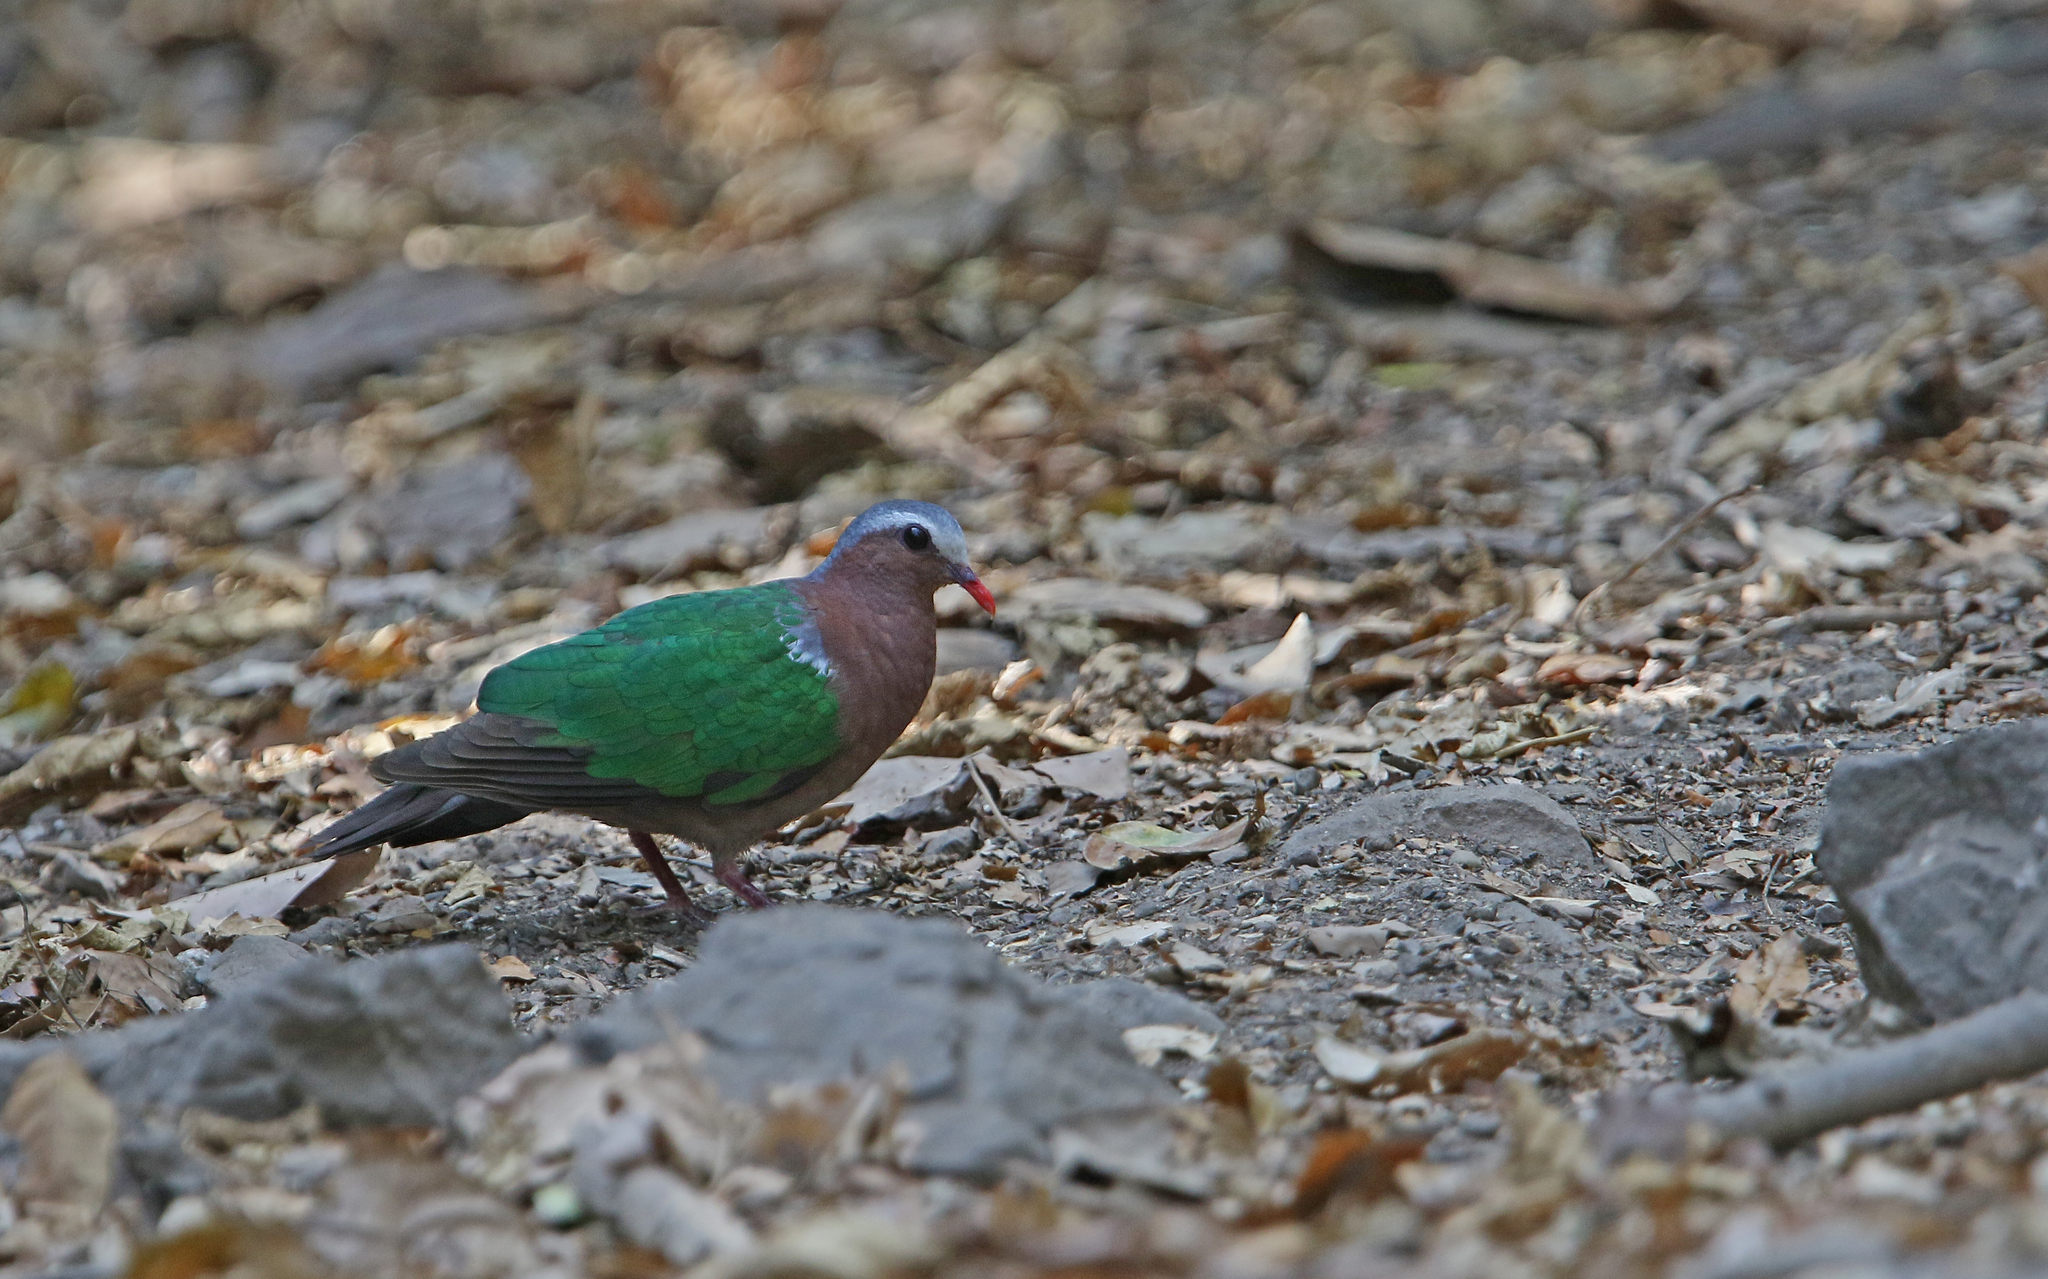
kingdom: Animalia
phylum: Chordata
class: Aves
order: Columbiformes
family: Columbidae
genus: Chalcophaps
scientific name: Chalcophaps indica
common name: Common emerald dove
